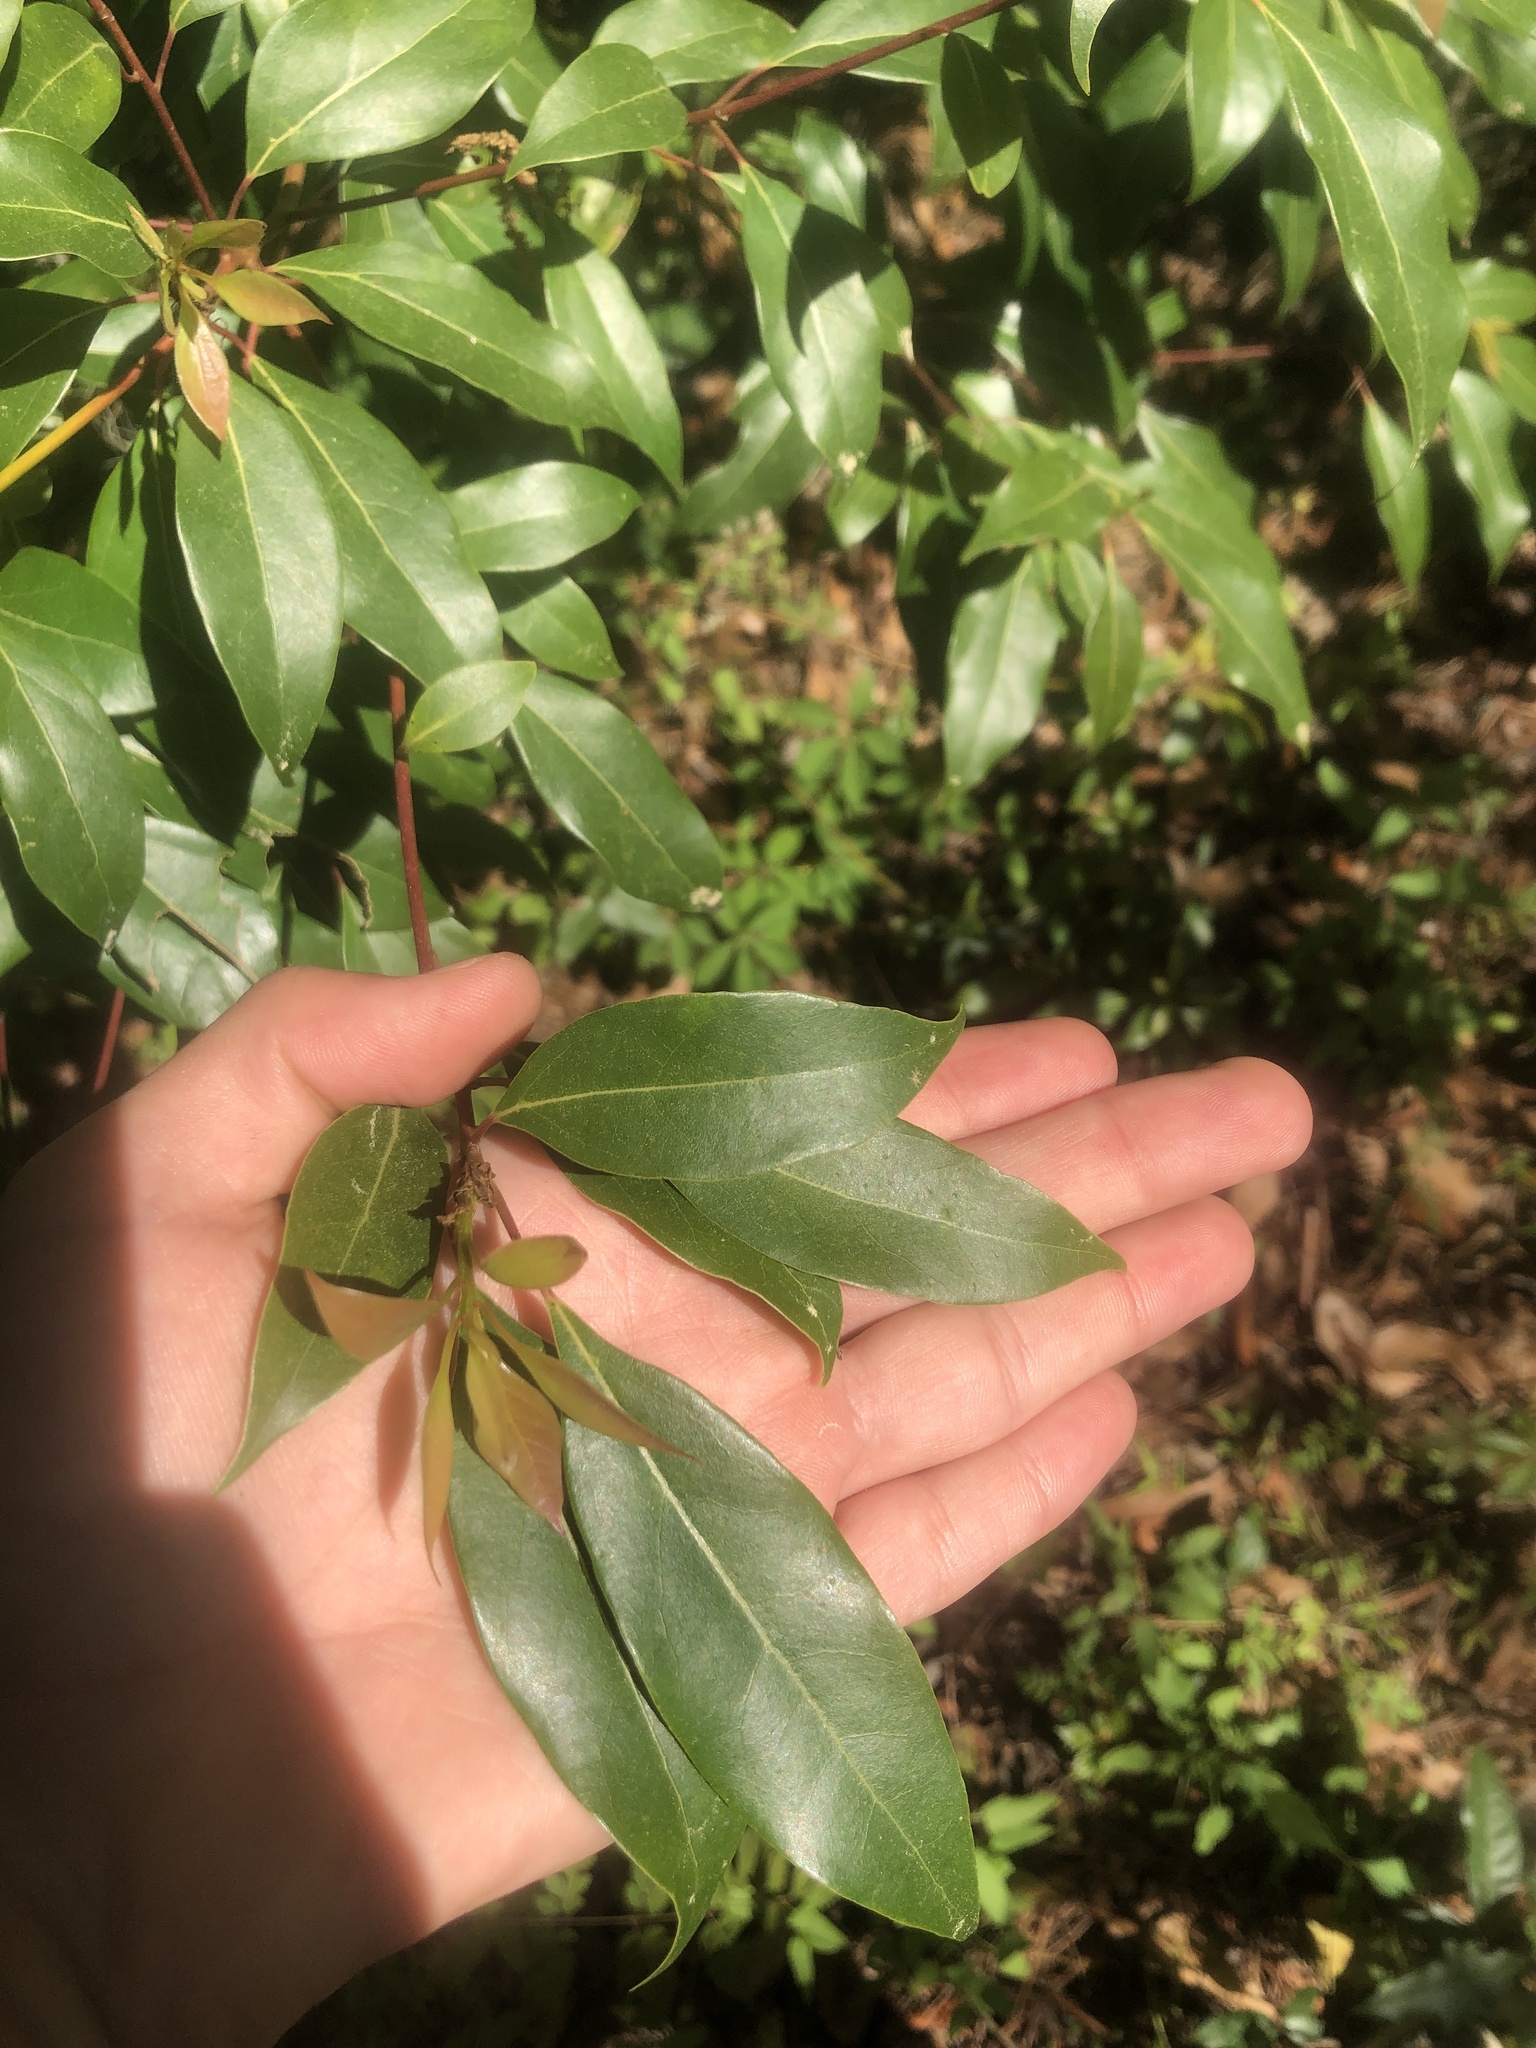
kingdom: Plantae
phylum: Tracheophyta
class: Magnoliopsida
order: Laurales
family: Lauraceae
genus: Cinnamomum
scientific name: Cinnamomum camphora
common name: Camphortree
